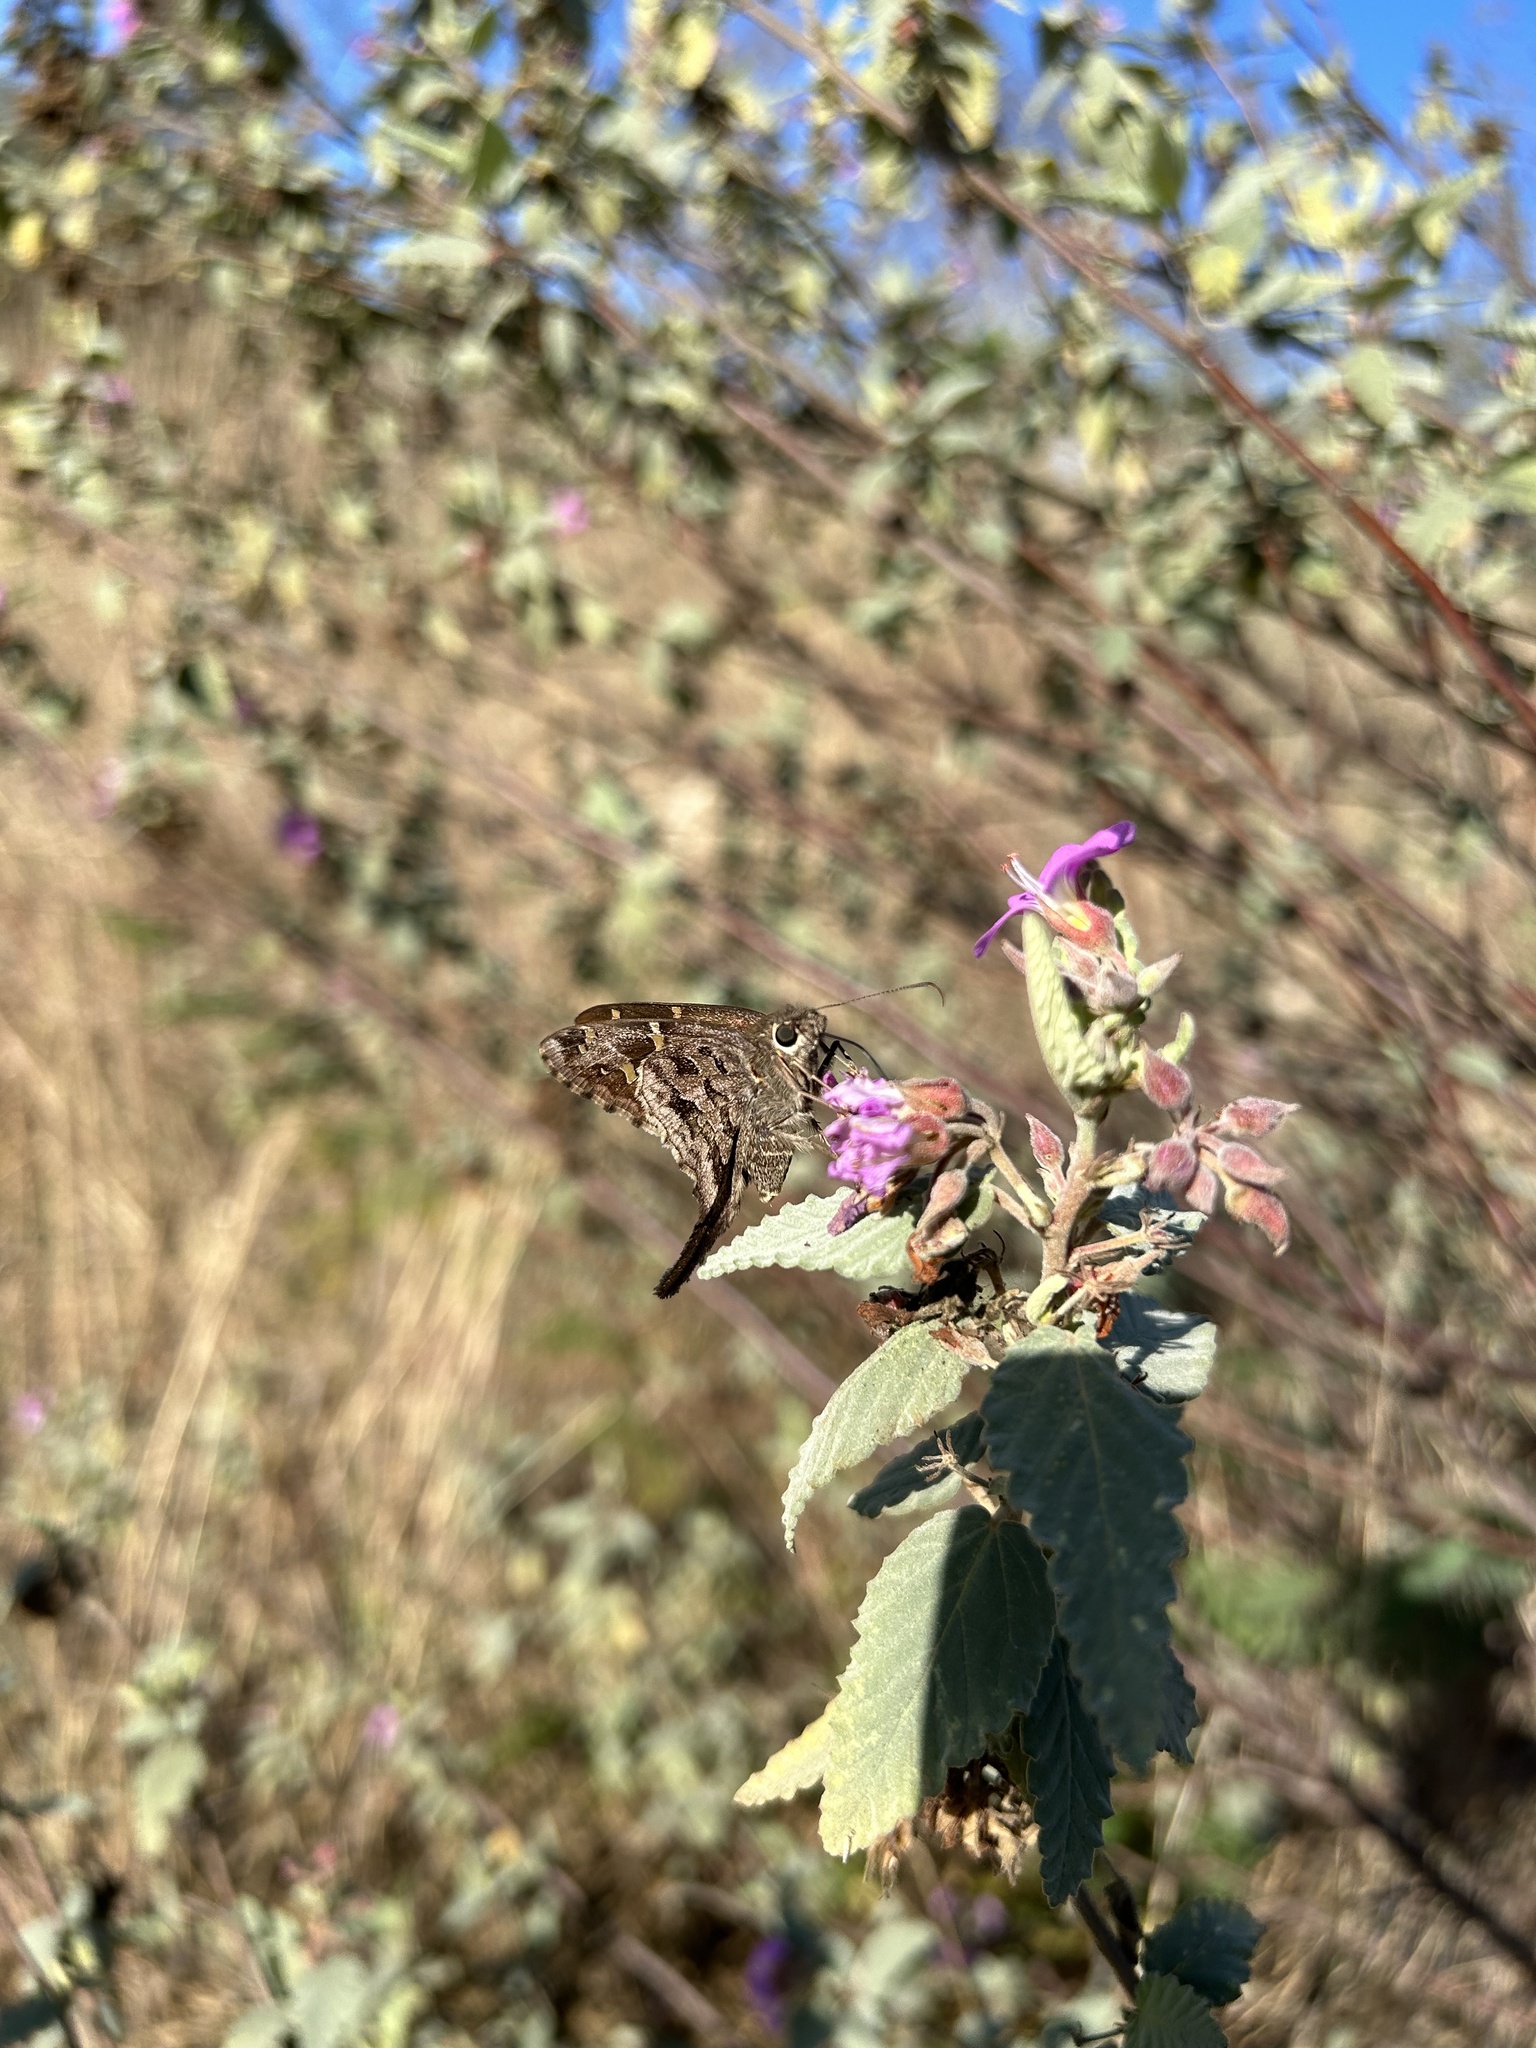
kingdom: Animalia
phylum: Arthropoda
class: Insecta
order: Lepidoptera
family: Hesperiidae
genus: Thorybes
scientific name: Thorybes
